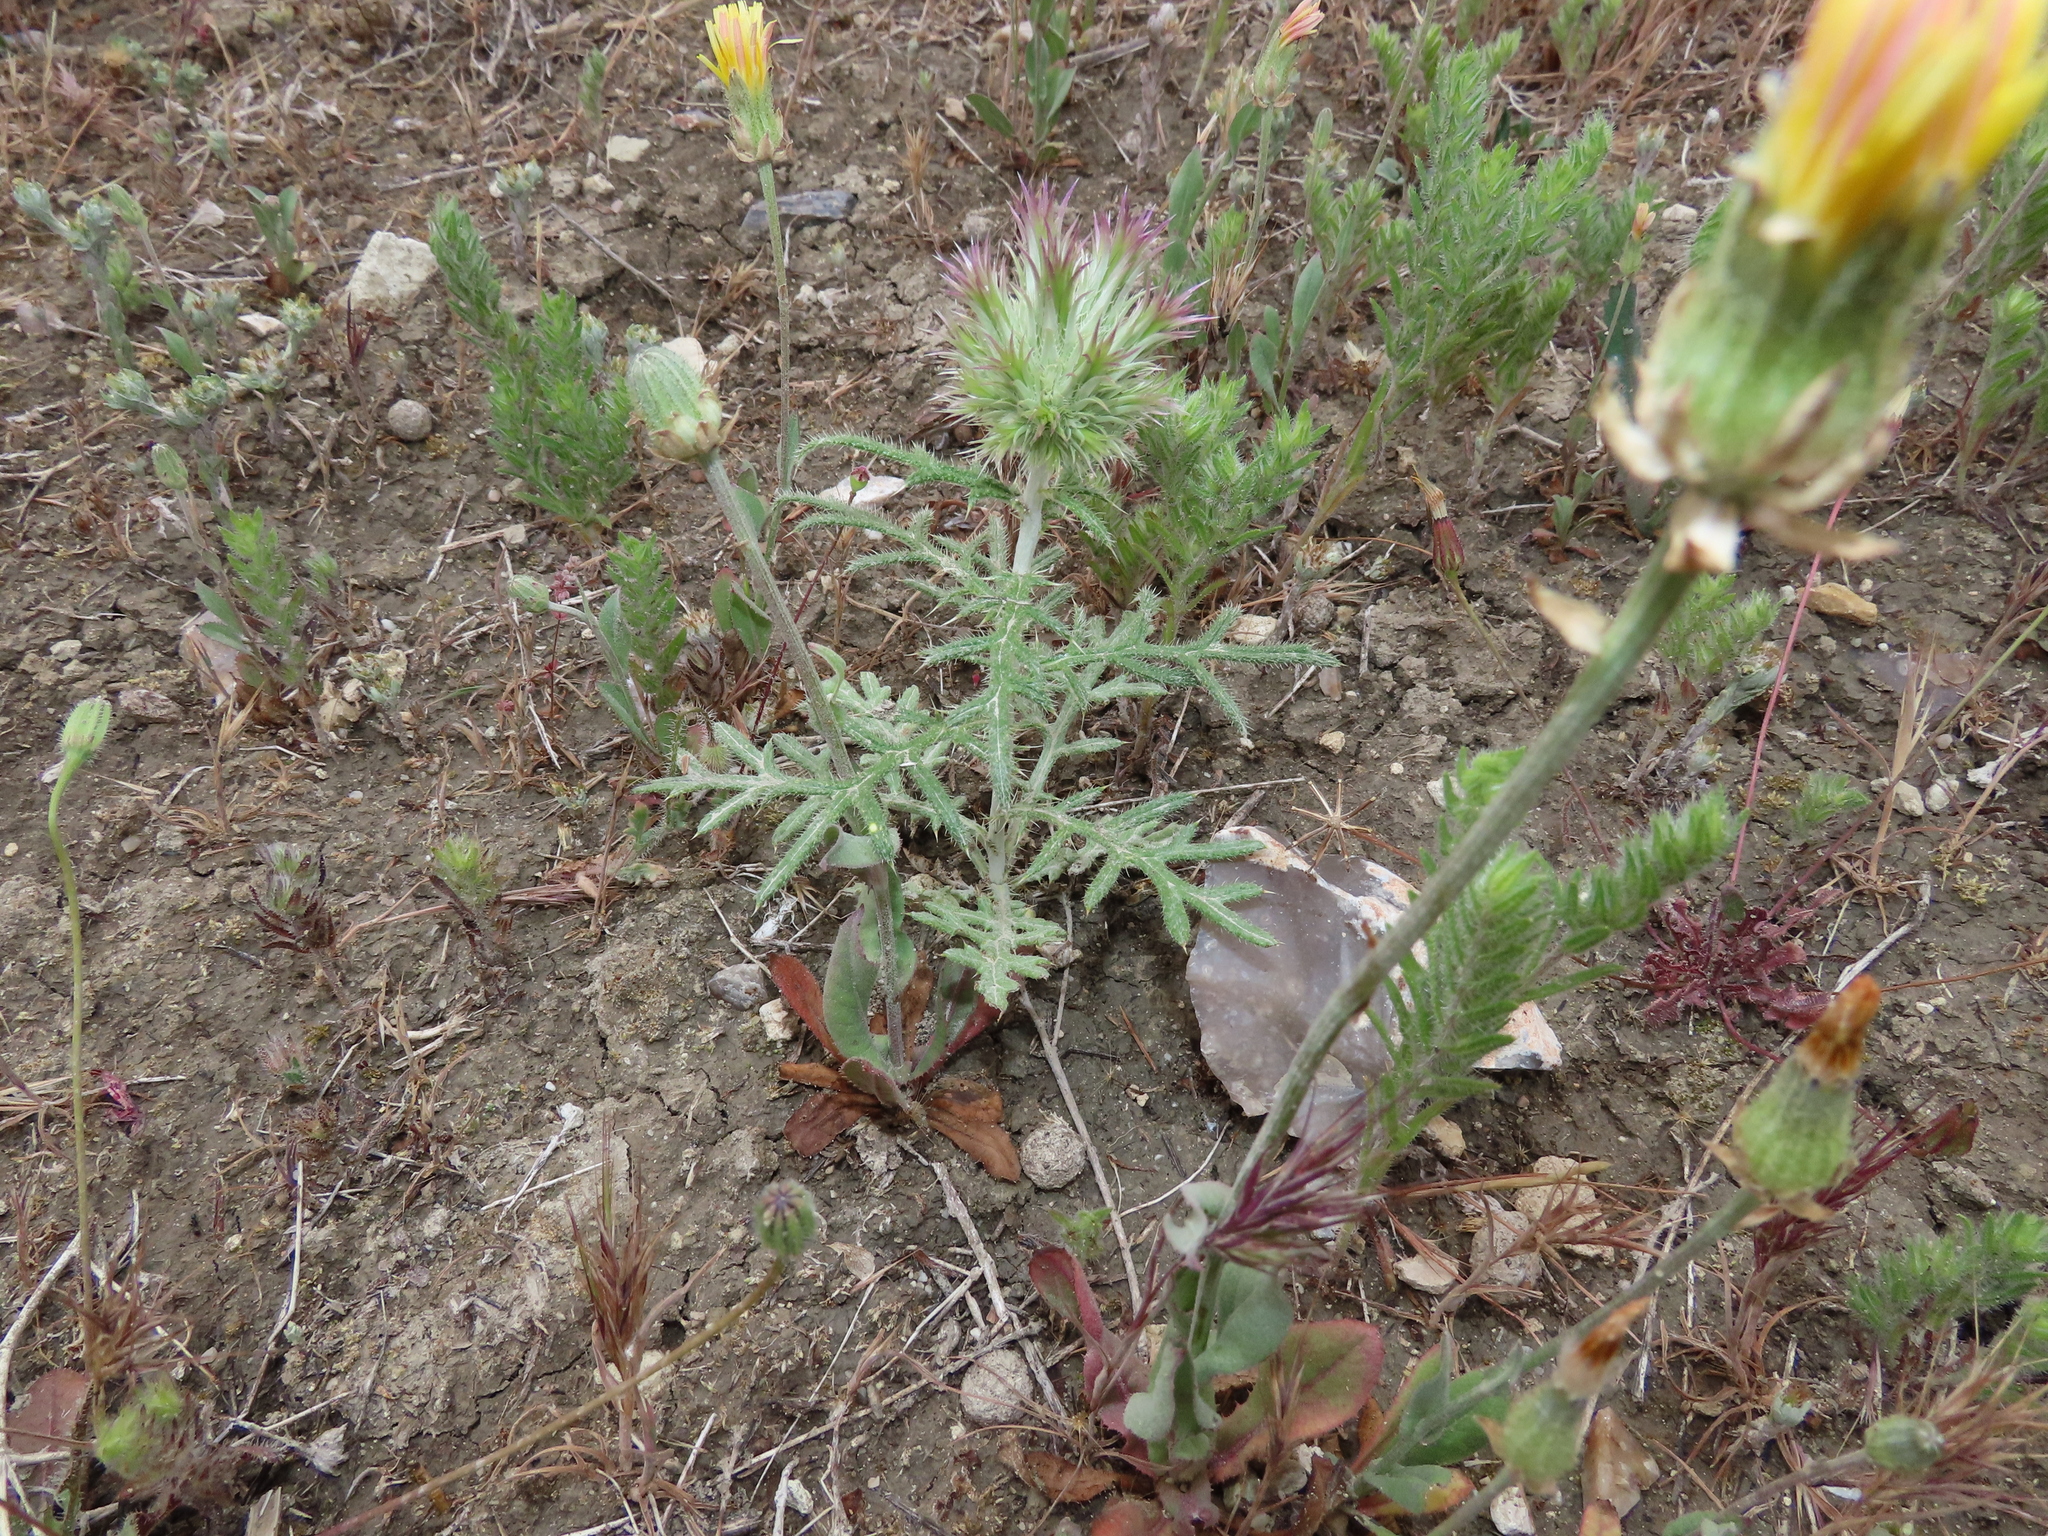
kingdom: Plantae
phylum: Tracheophyta
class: Magnoliopsida
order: Asterales
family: Asteraceae
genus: Echinops
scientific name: Echinops strigosus
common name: Rough-leaf globe thistle
